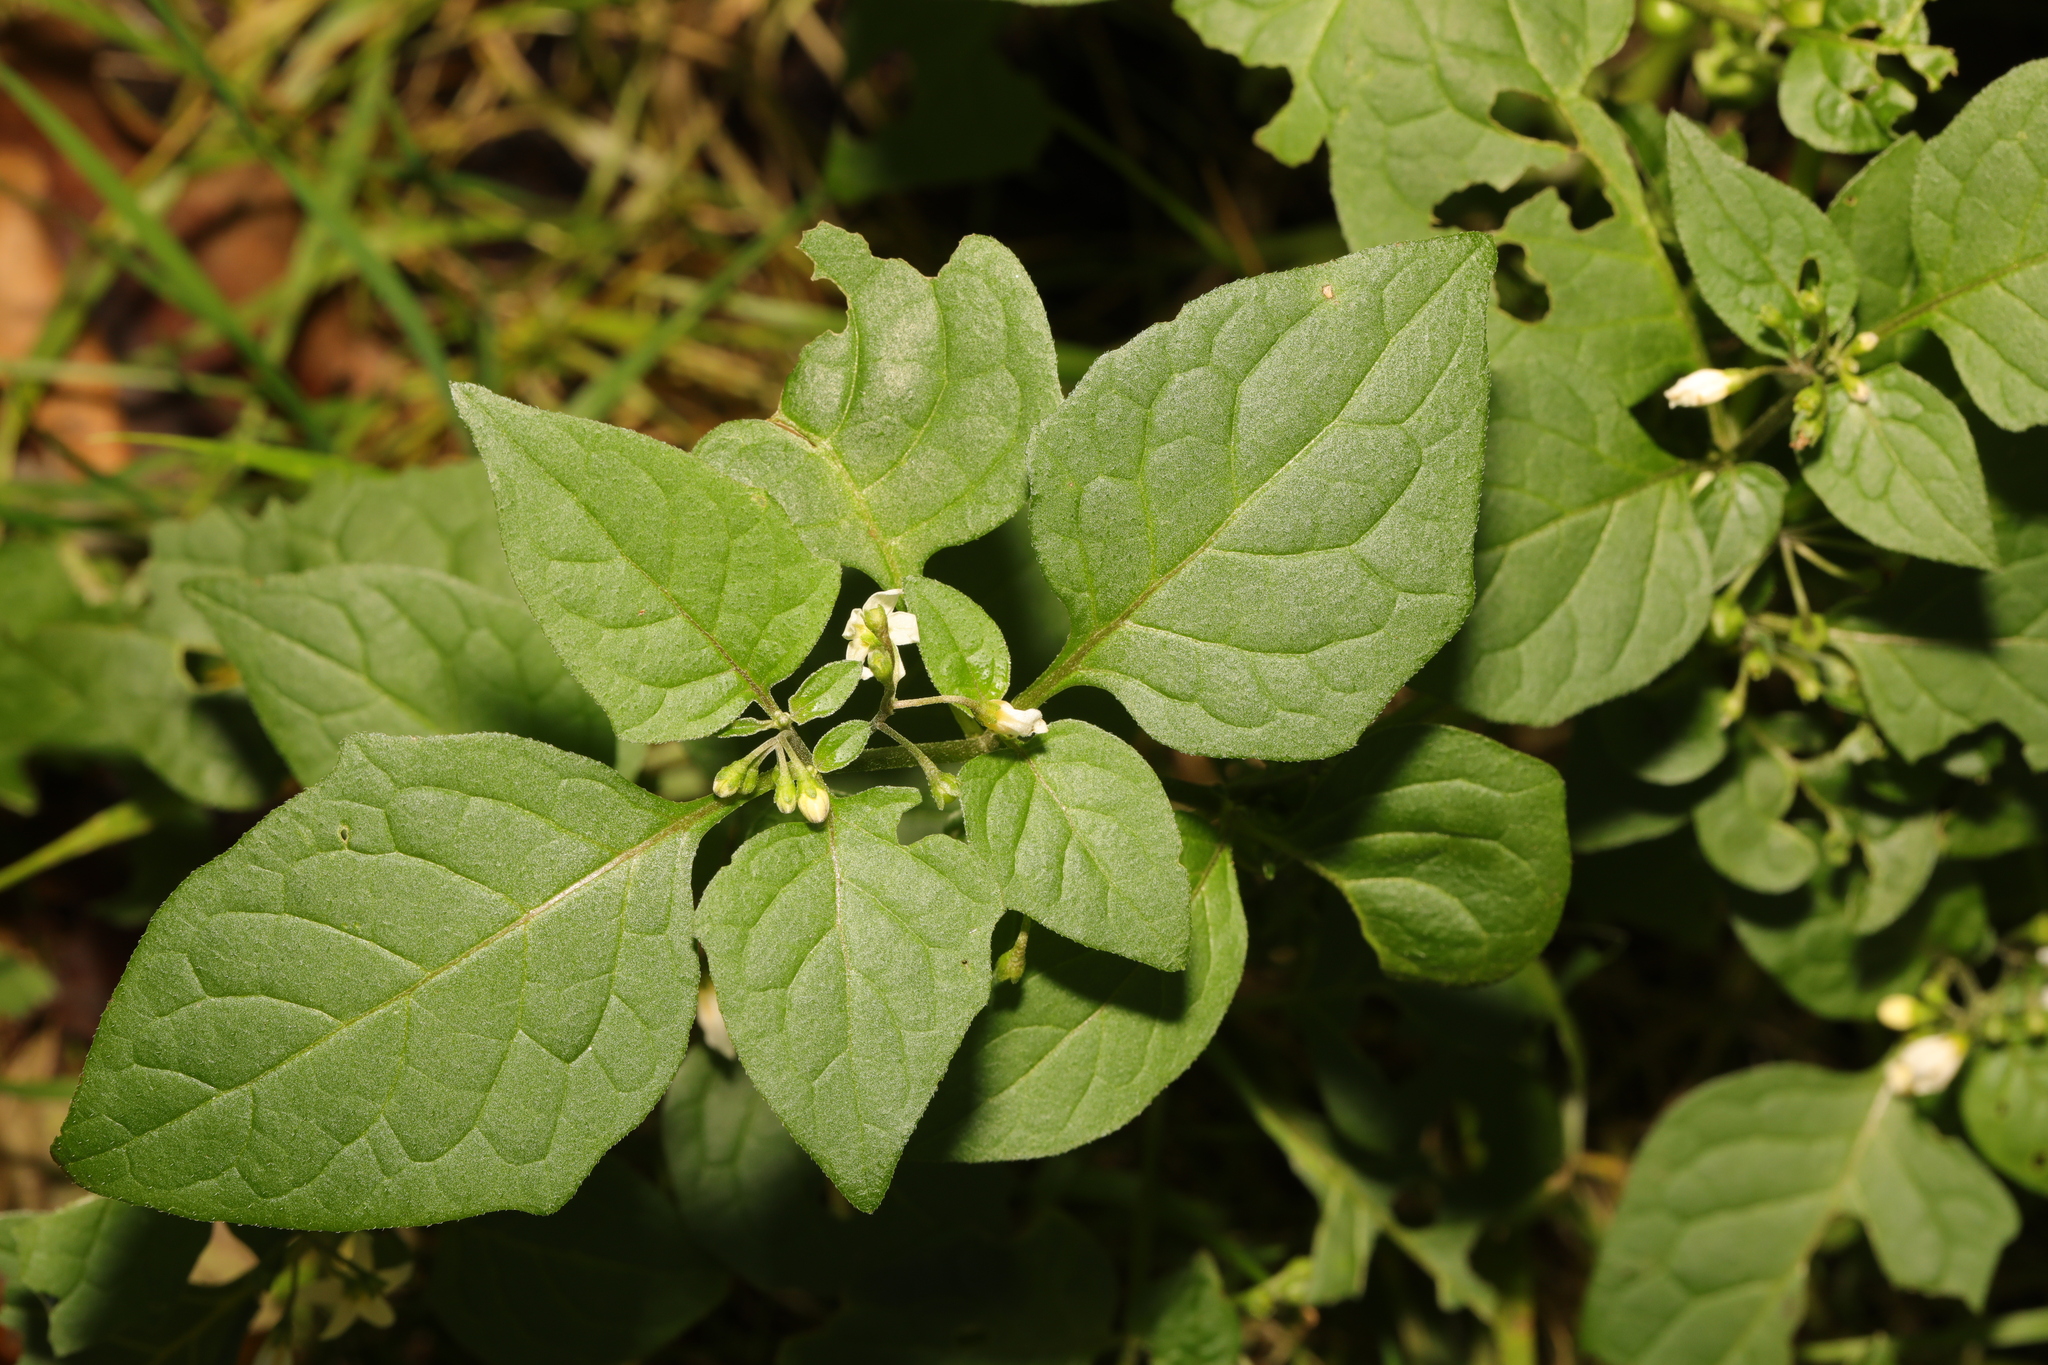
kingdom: Plantae
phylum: Tracheophyta
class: Magnoliopsida
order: Solanales
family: Solanaceae
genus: Solanum
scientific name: Solanum nigrum
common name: Black nightshade
